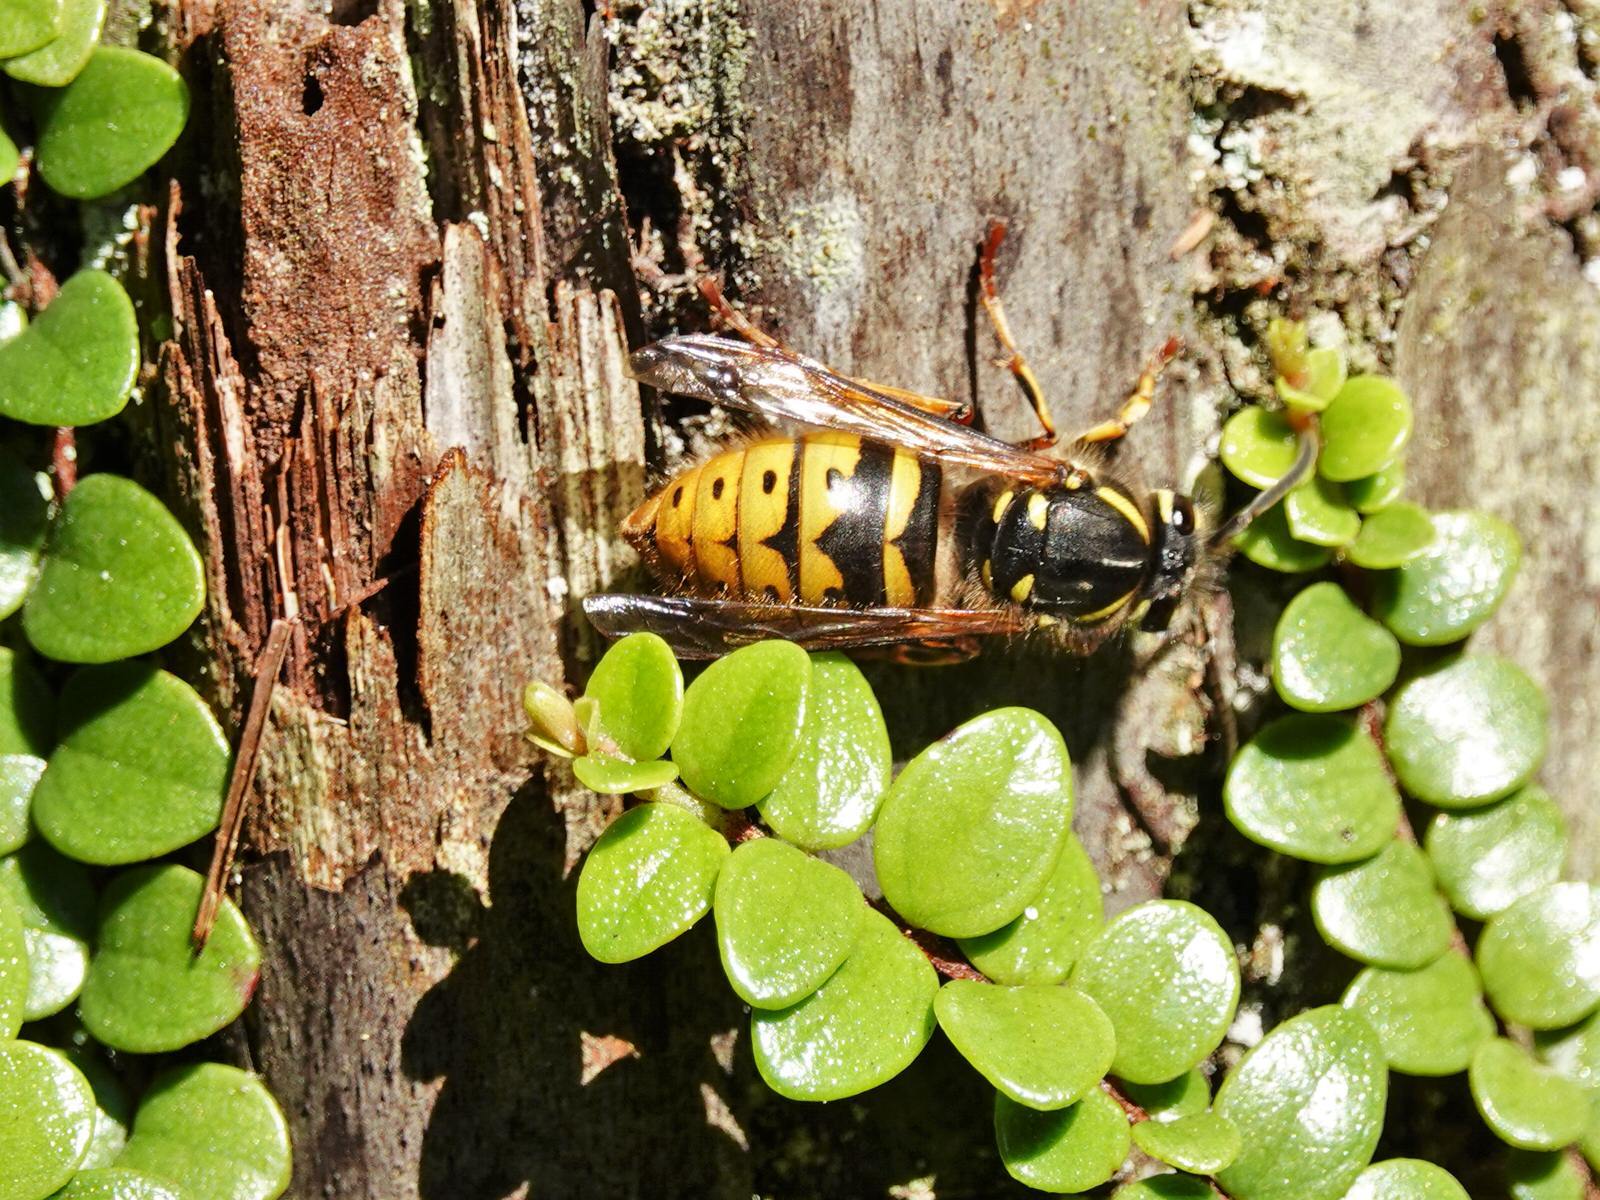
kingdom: Animalia
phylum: Arthropoda
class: Insecta
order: Hymenoptera
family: Vespidae
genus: Vespula
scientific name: Vespula vulgaris
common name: Common wasp
